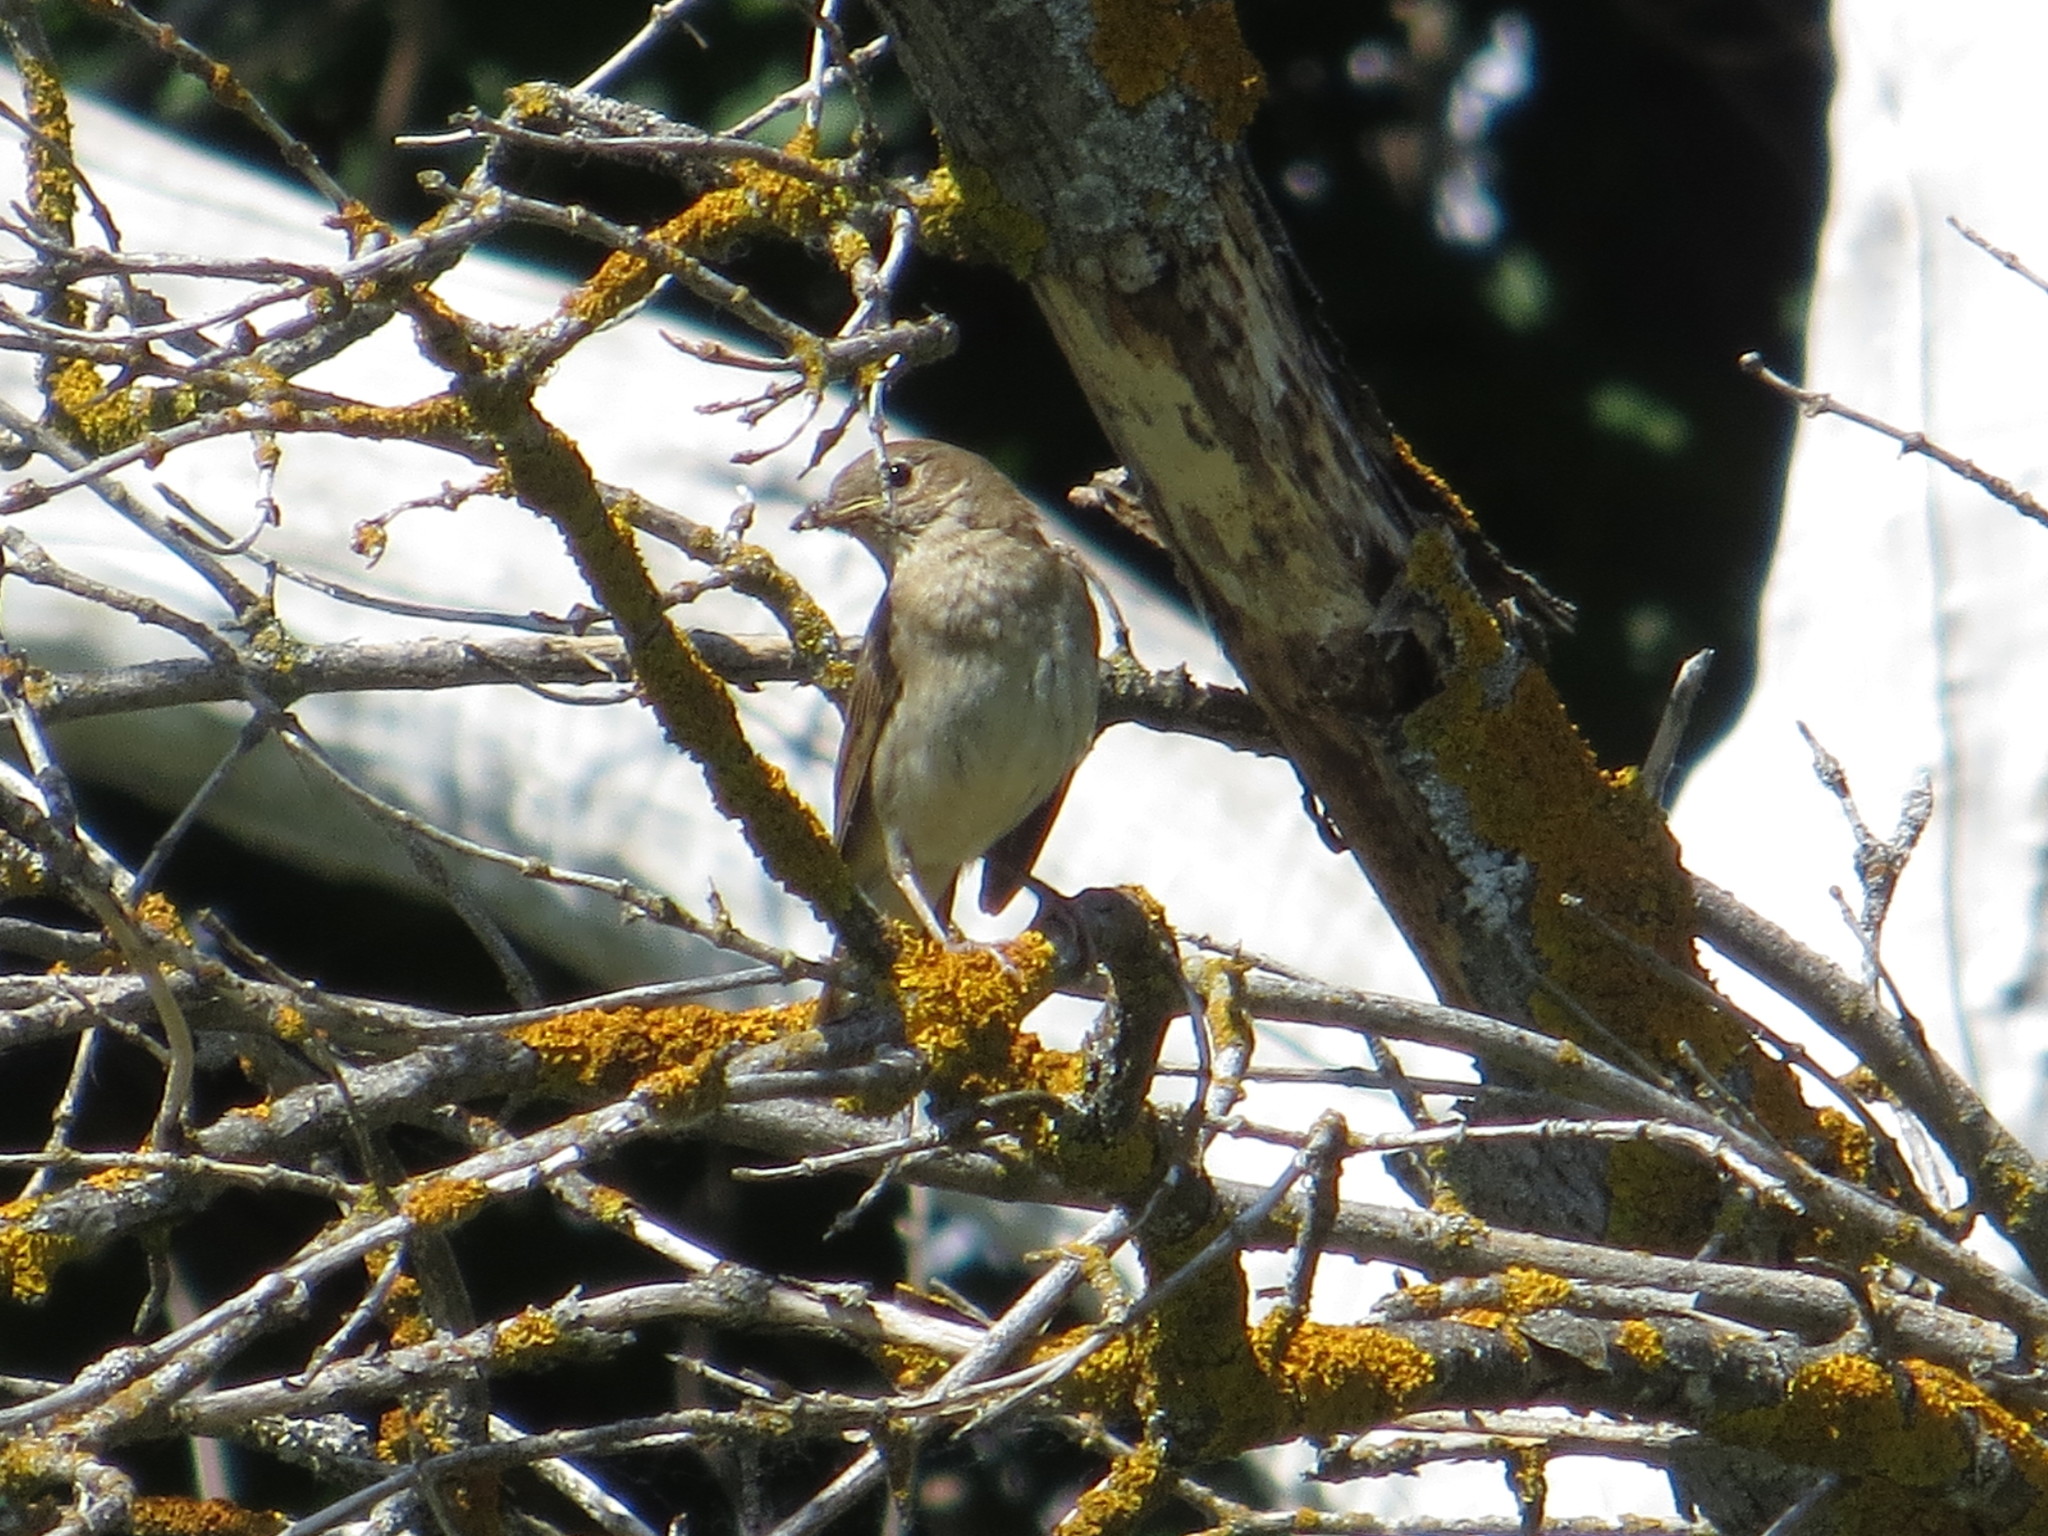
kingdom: Animalia
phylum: Chordata
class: Aves
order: Passeriformes
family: Muscicapidae
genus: Luscinia
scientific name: Luscinia luscinia
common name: Thrush nightingale
